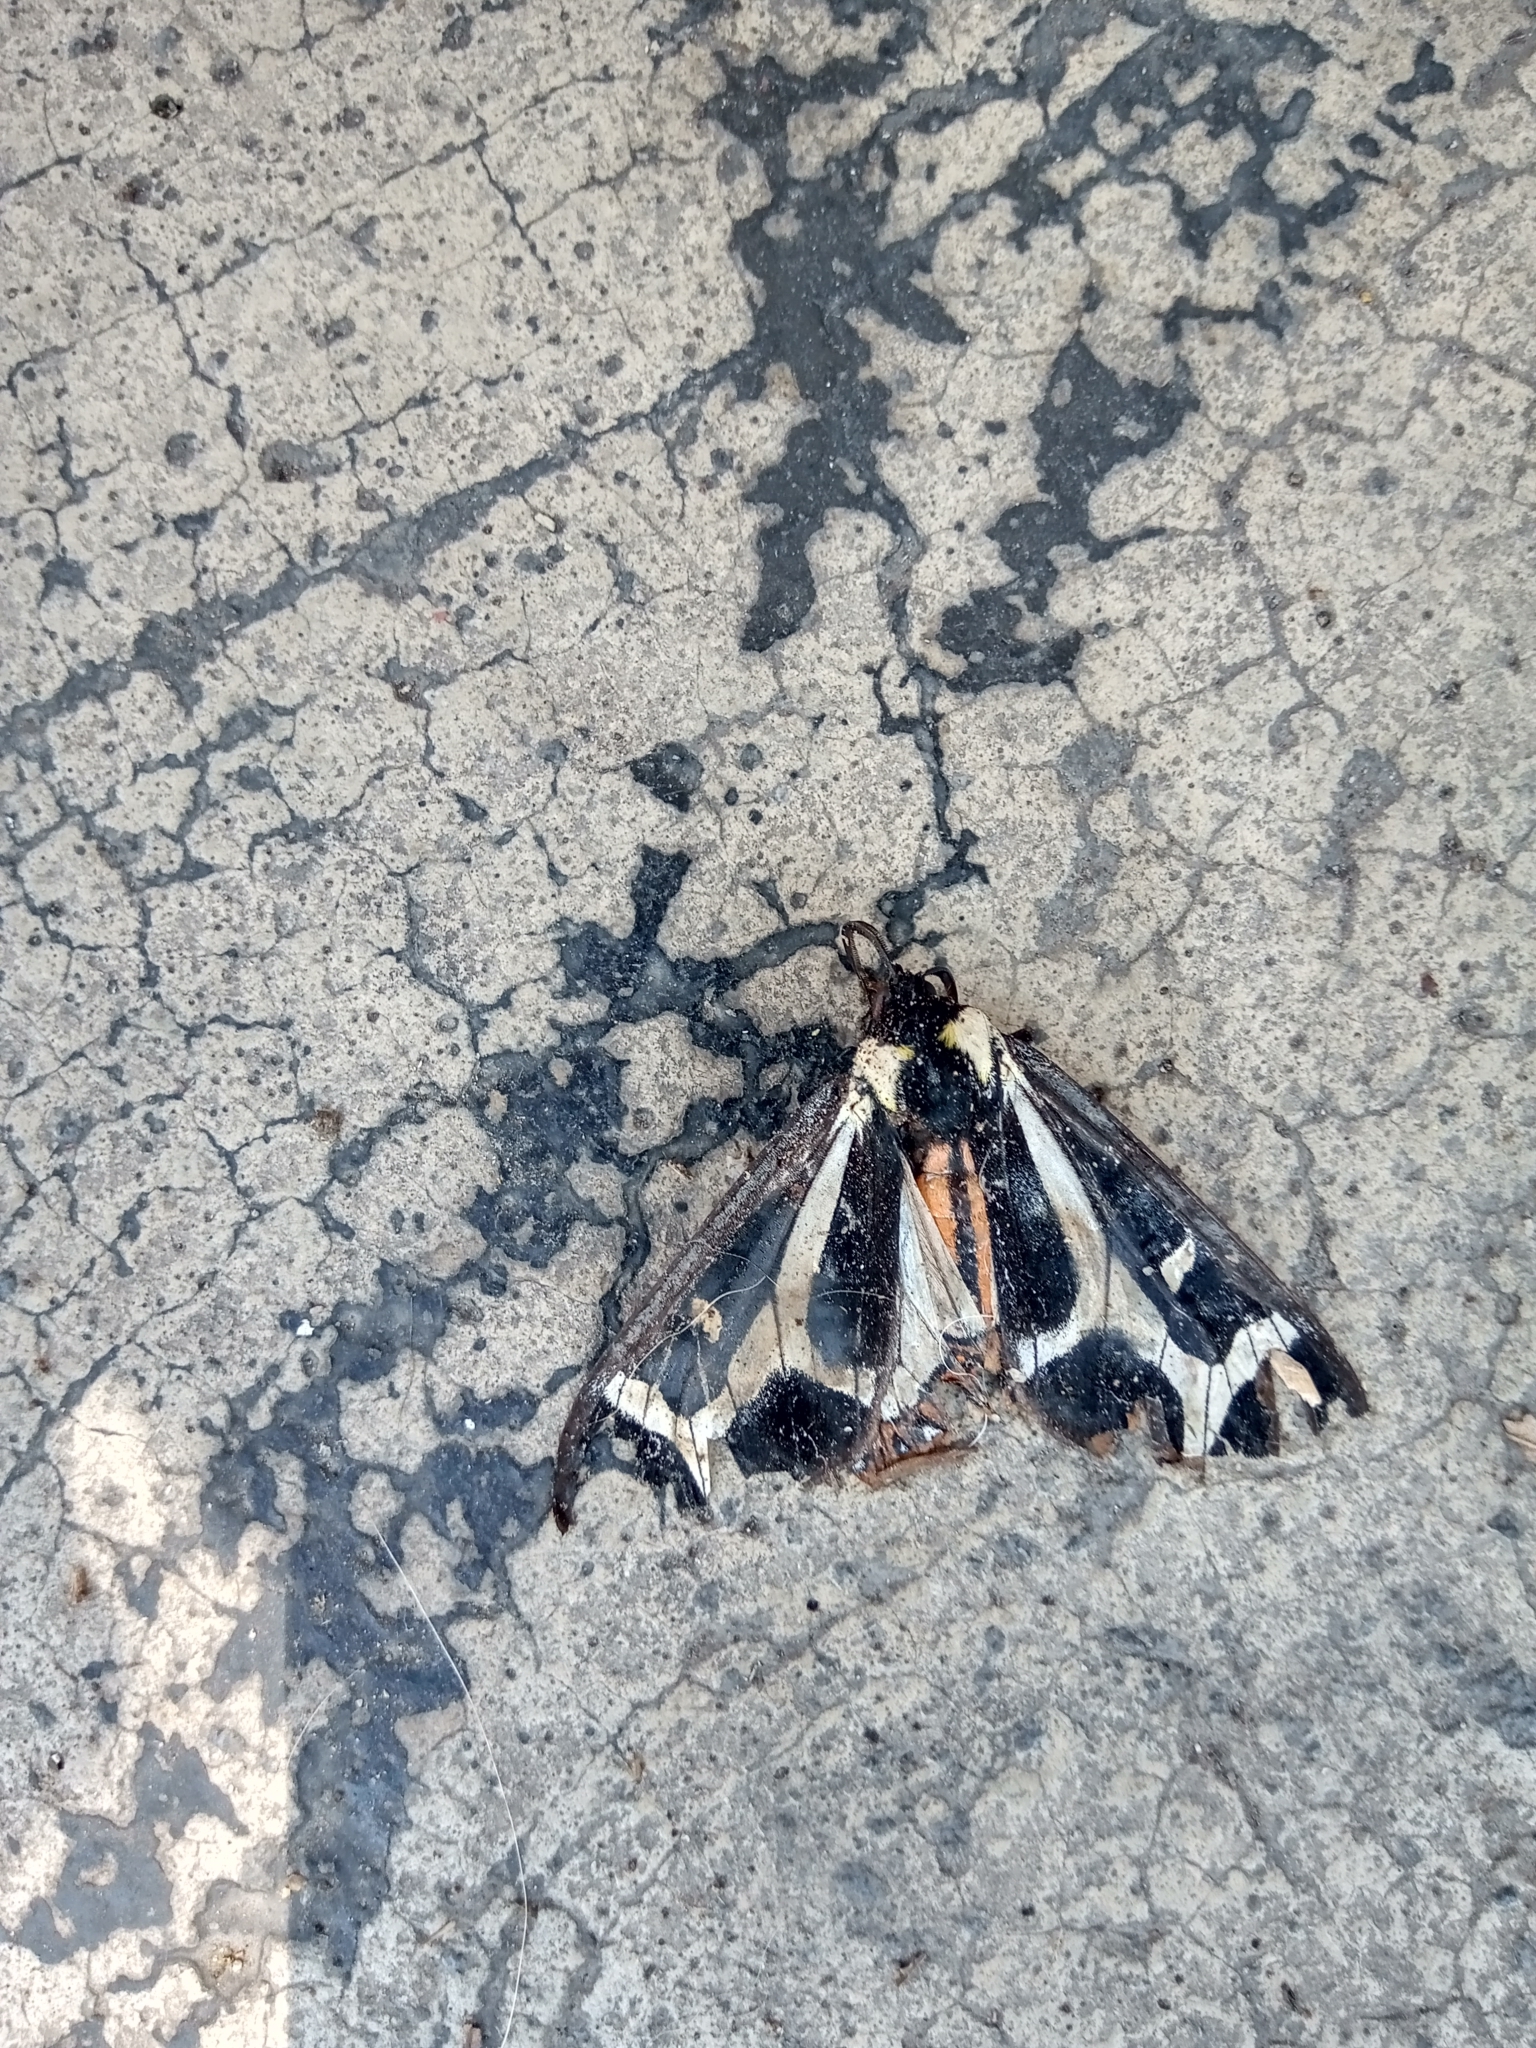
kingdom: Animalia
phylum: Arthropoda
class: Insecta
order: Lepidoptera
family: Erebidae
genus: Dysschema
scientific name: Dysschema howardi
